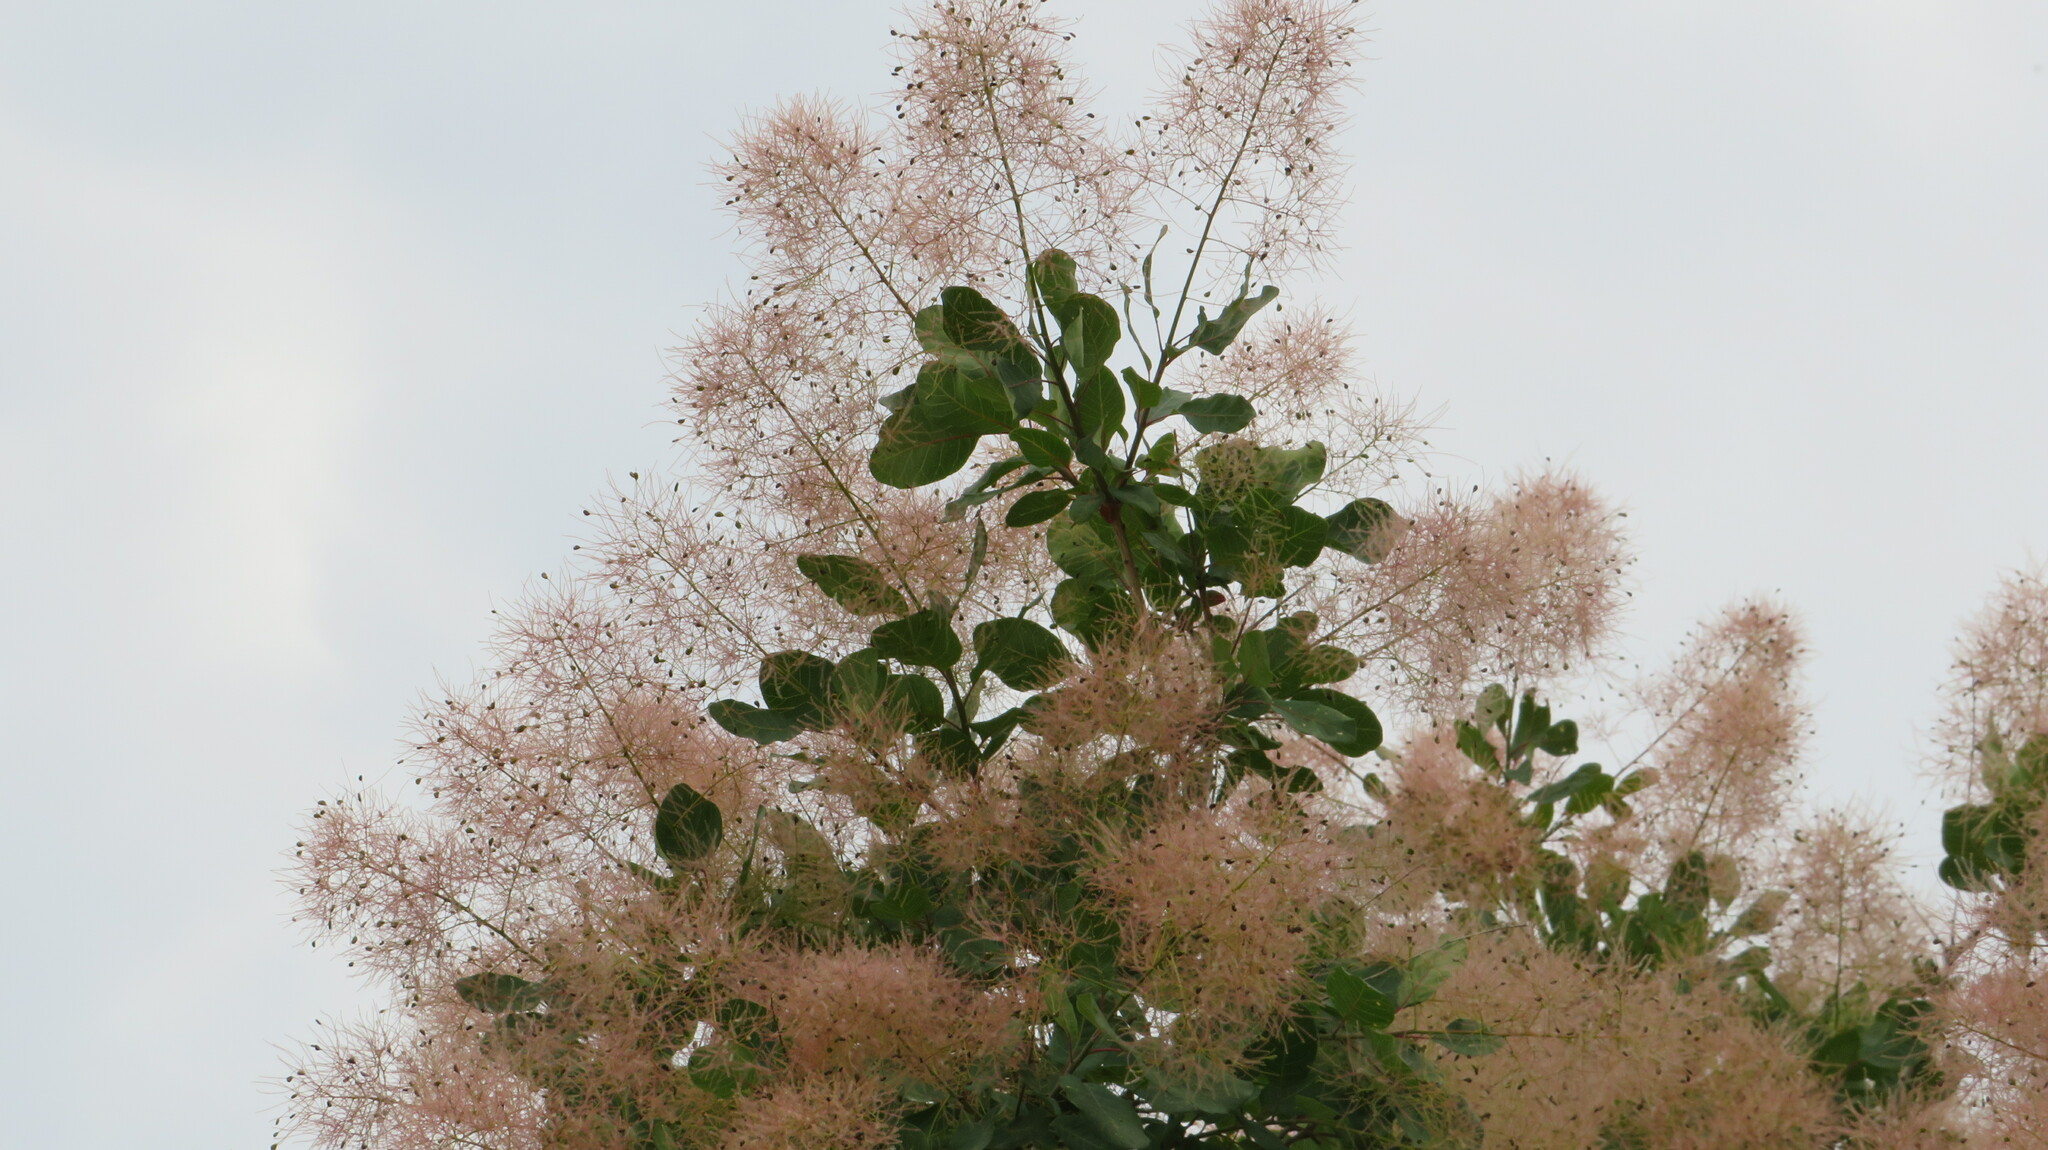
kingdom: Plantae
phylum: Tracheophyta
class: Magnoliopsida
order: Sapindales
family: Anacardiaceae
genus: Cotinus
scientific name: Cotinus coggygria
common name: Smoke-tree
